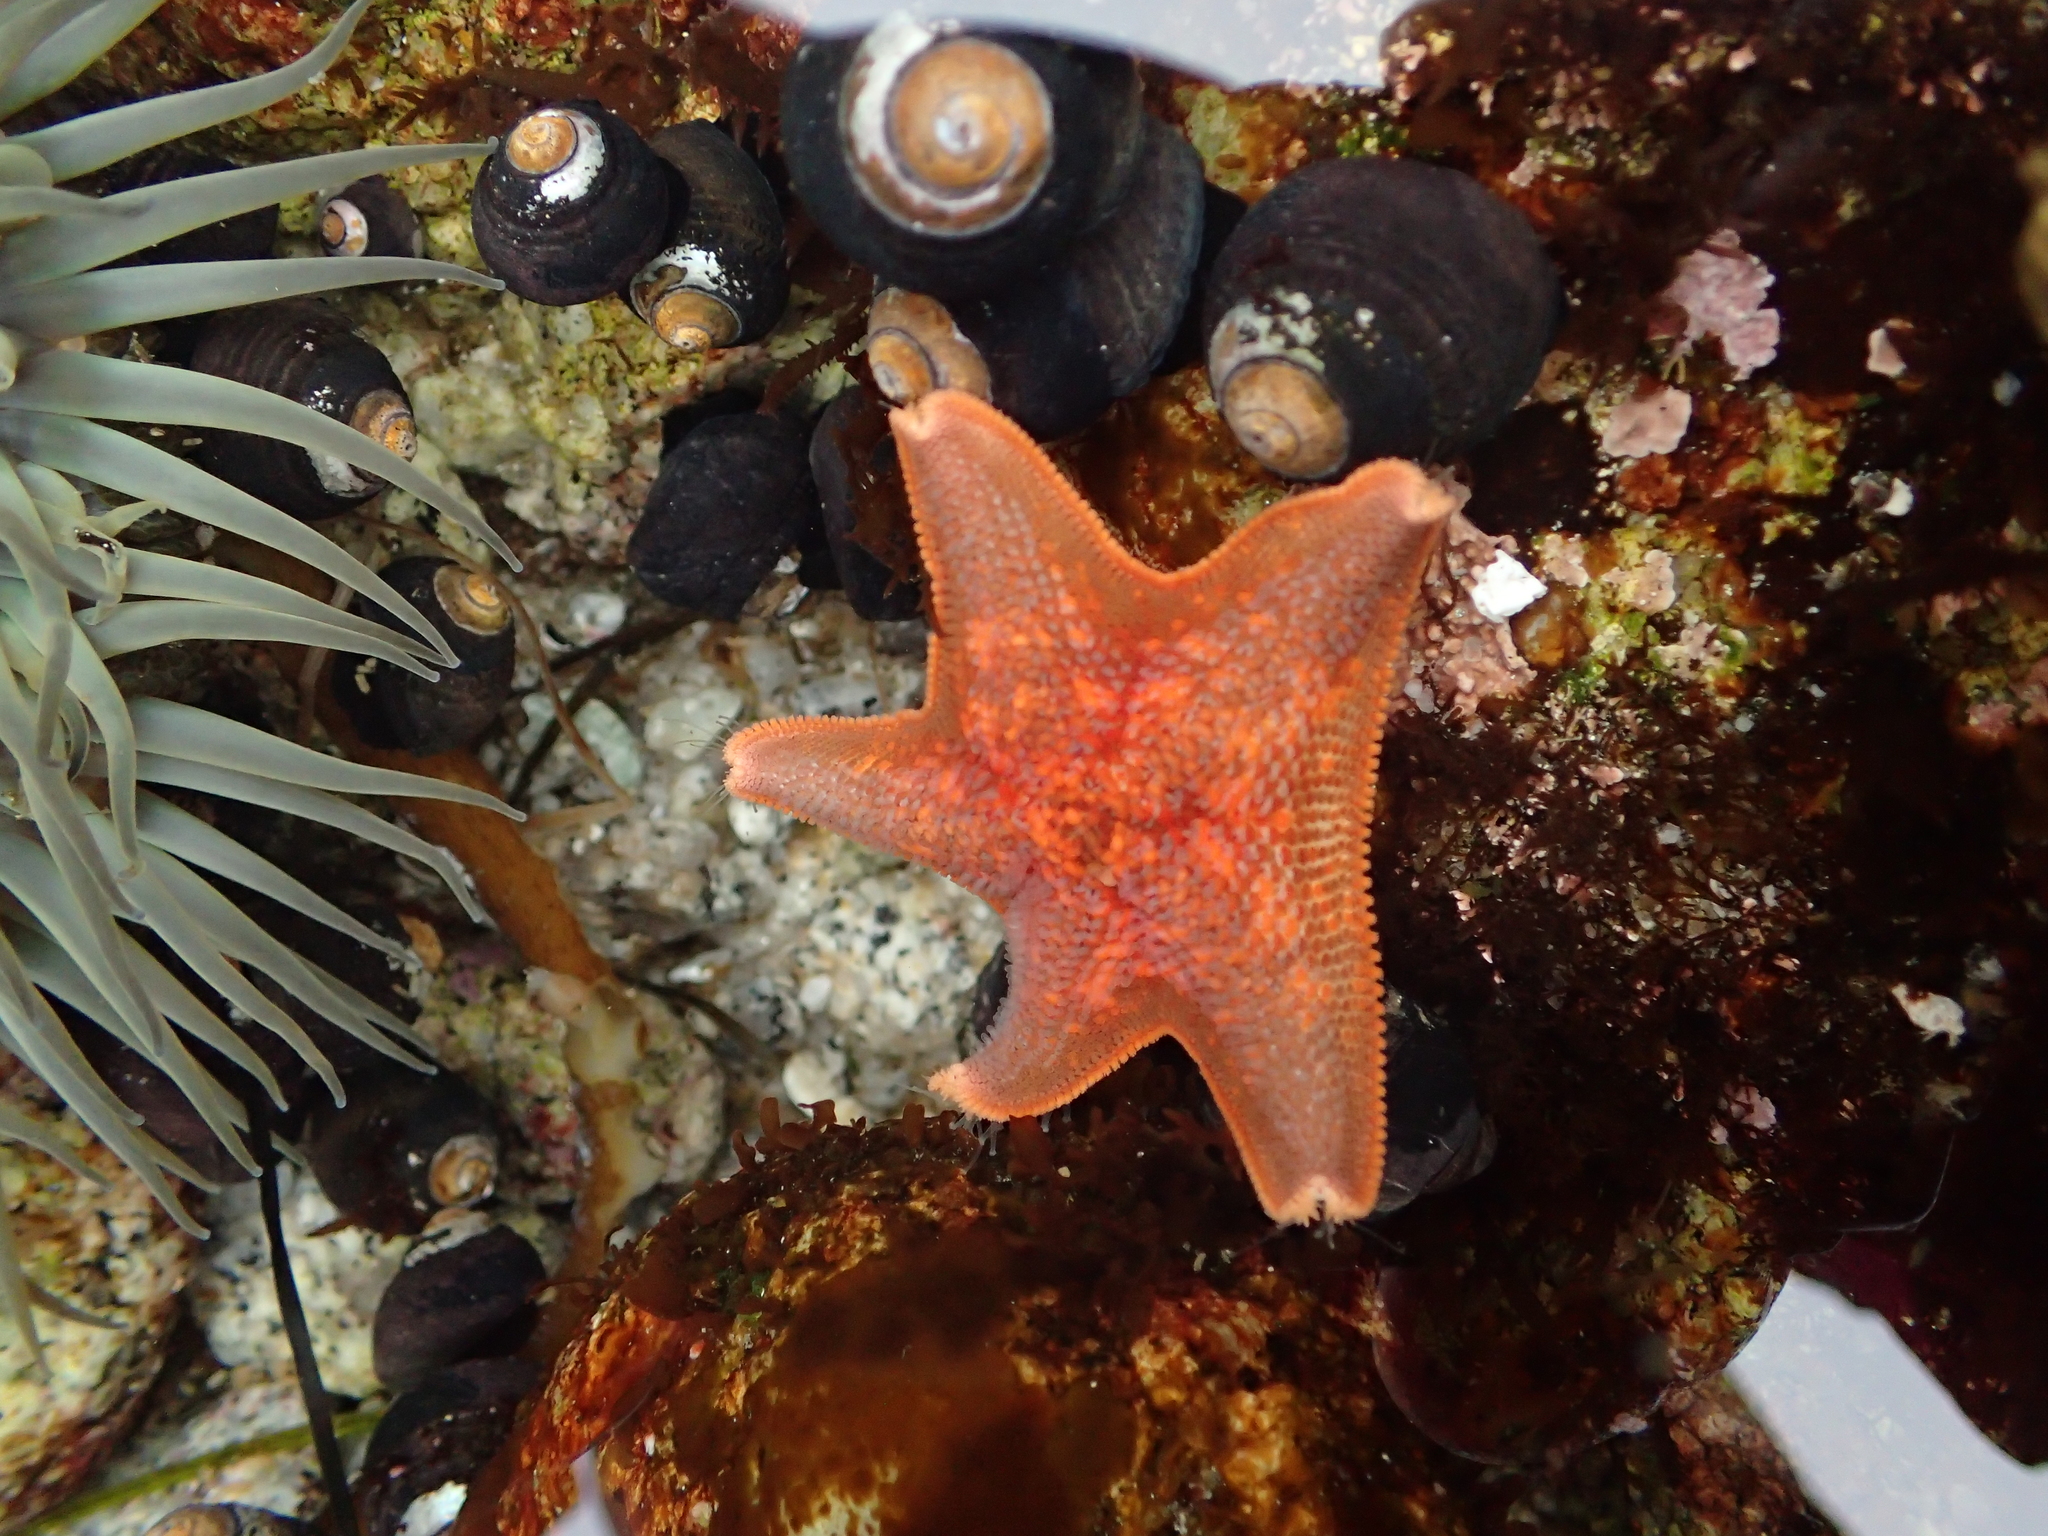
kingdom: Animalia
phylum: Echinodermata
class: Asteroidea
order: Valvatida
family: Asterinidae
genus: Patiria
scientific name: Patiria miniata
